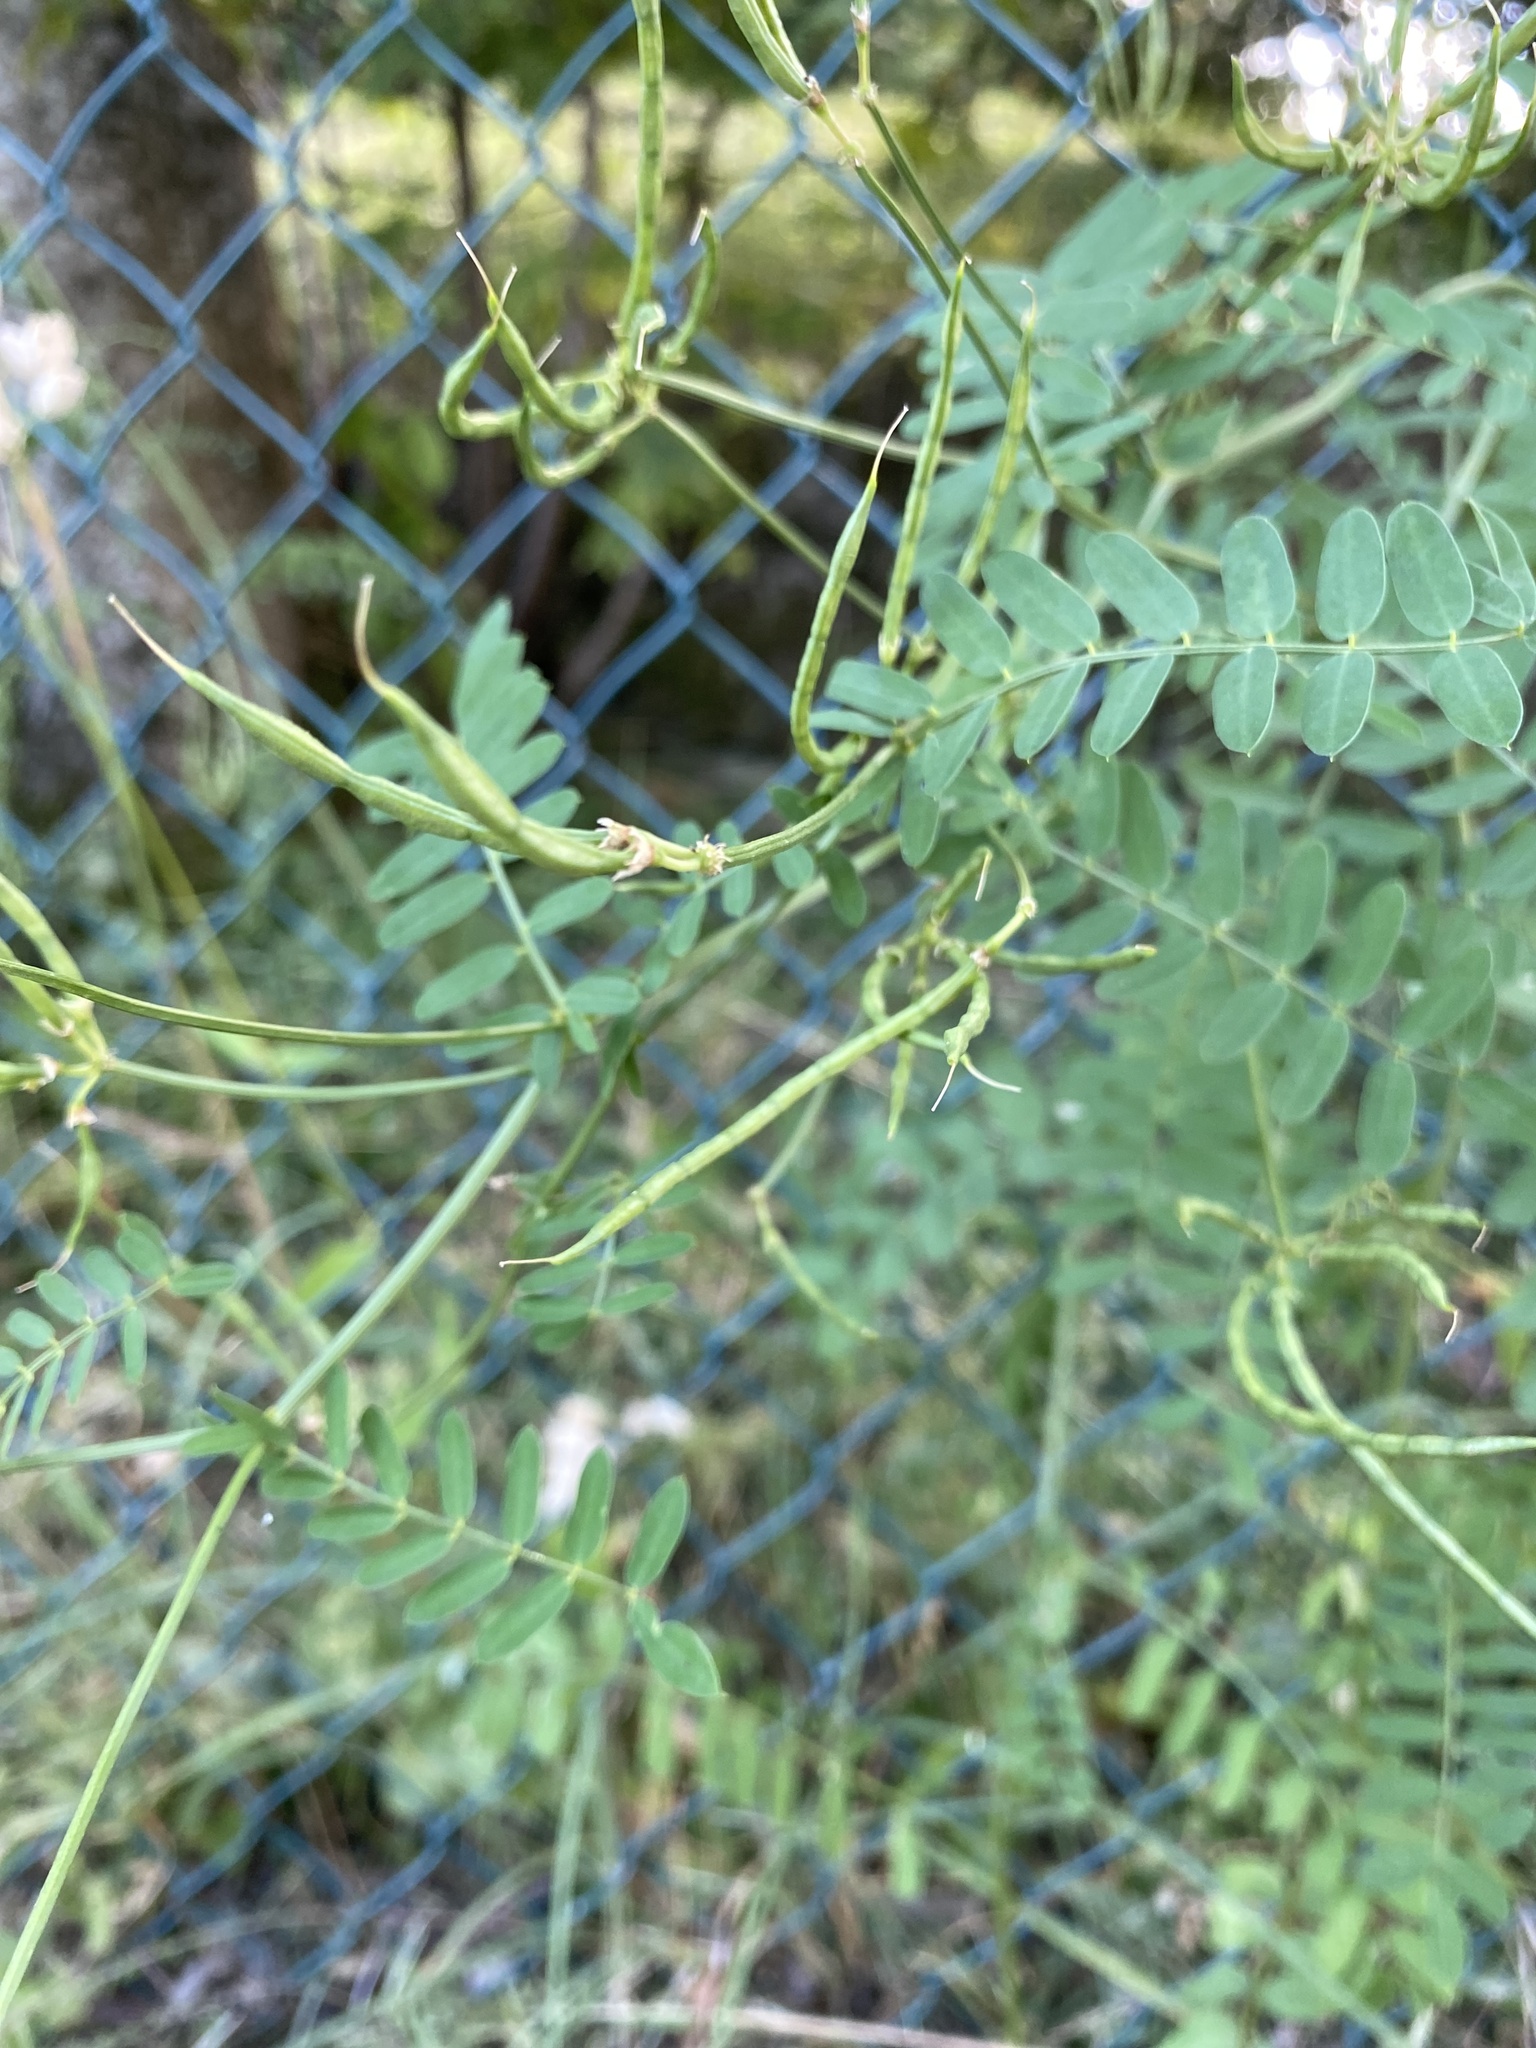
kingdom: Plantae
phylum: Tracheophyta
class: Magnoliopsida
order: Fabales
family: Fabaceae
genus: Coronilla
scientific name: Coronilla varia
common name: Crownvetch
